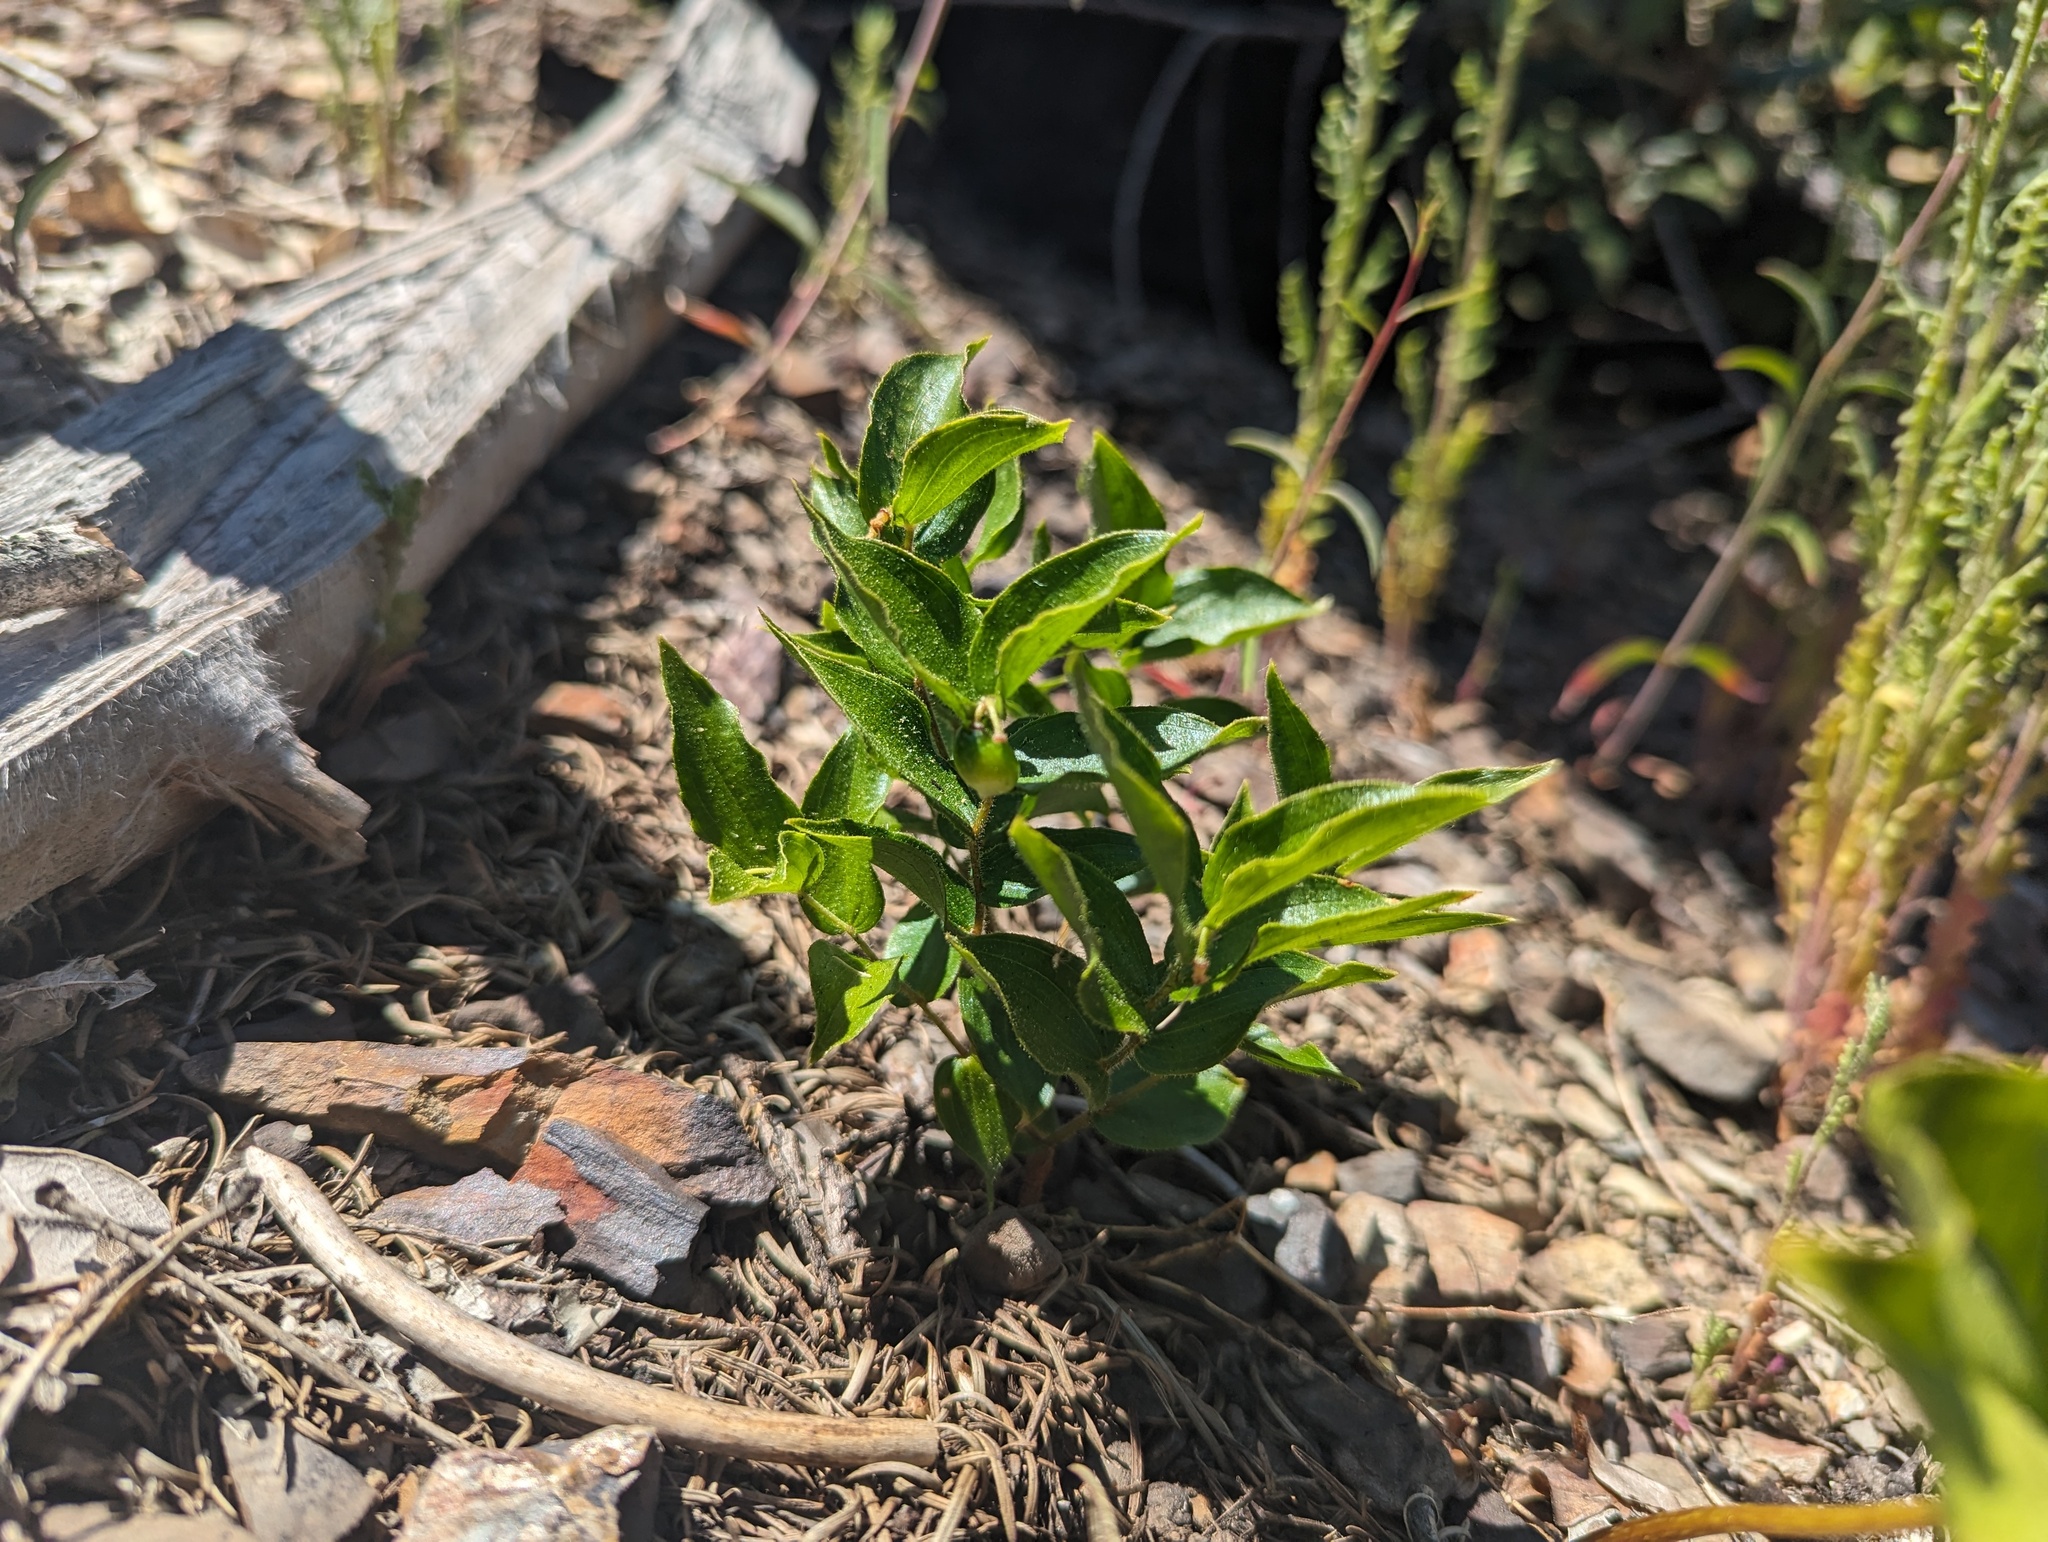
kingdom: Plantae
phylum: Tracheophyta
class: Liliopsida
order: Liliales
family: Liliaceae
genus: Prosartes
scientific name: Prosartes parvifolia
